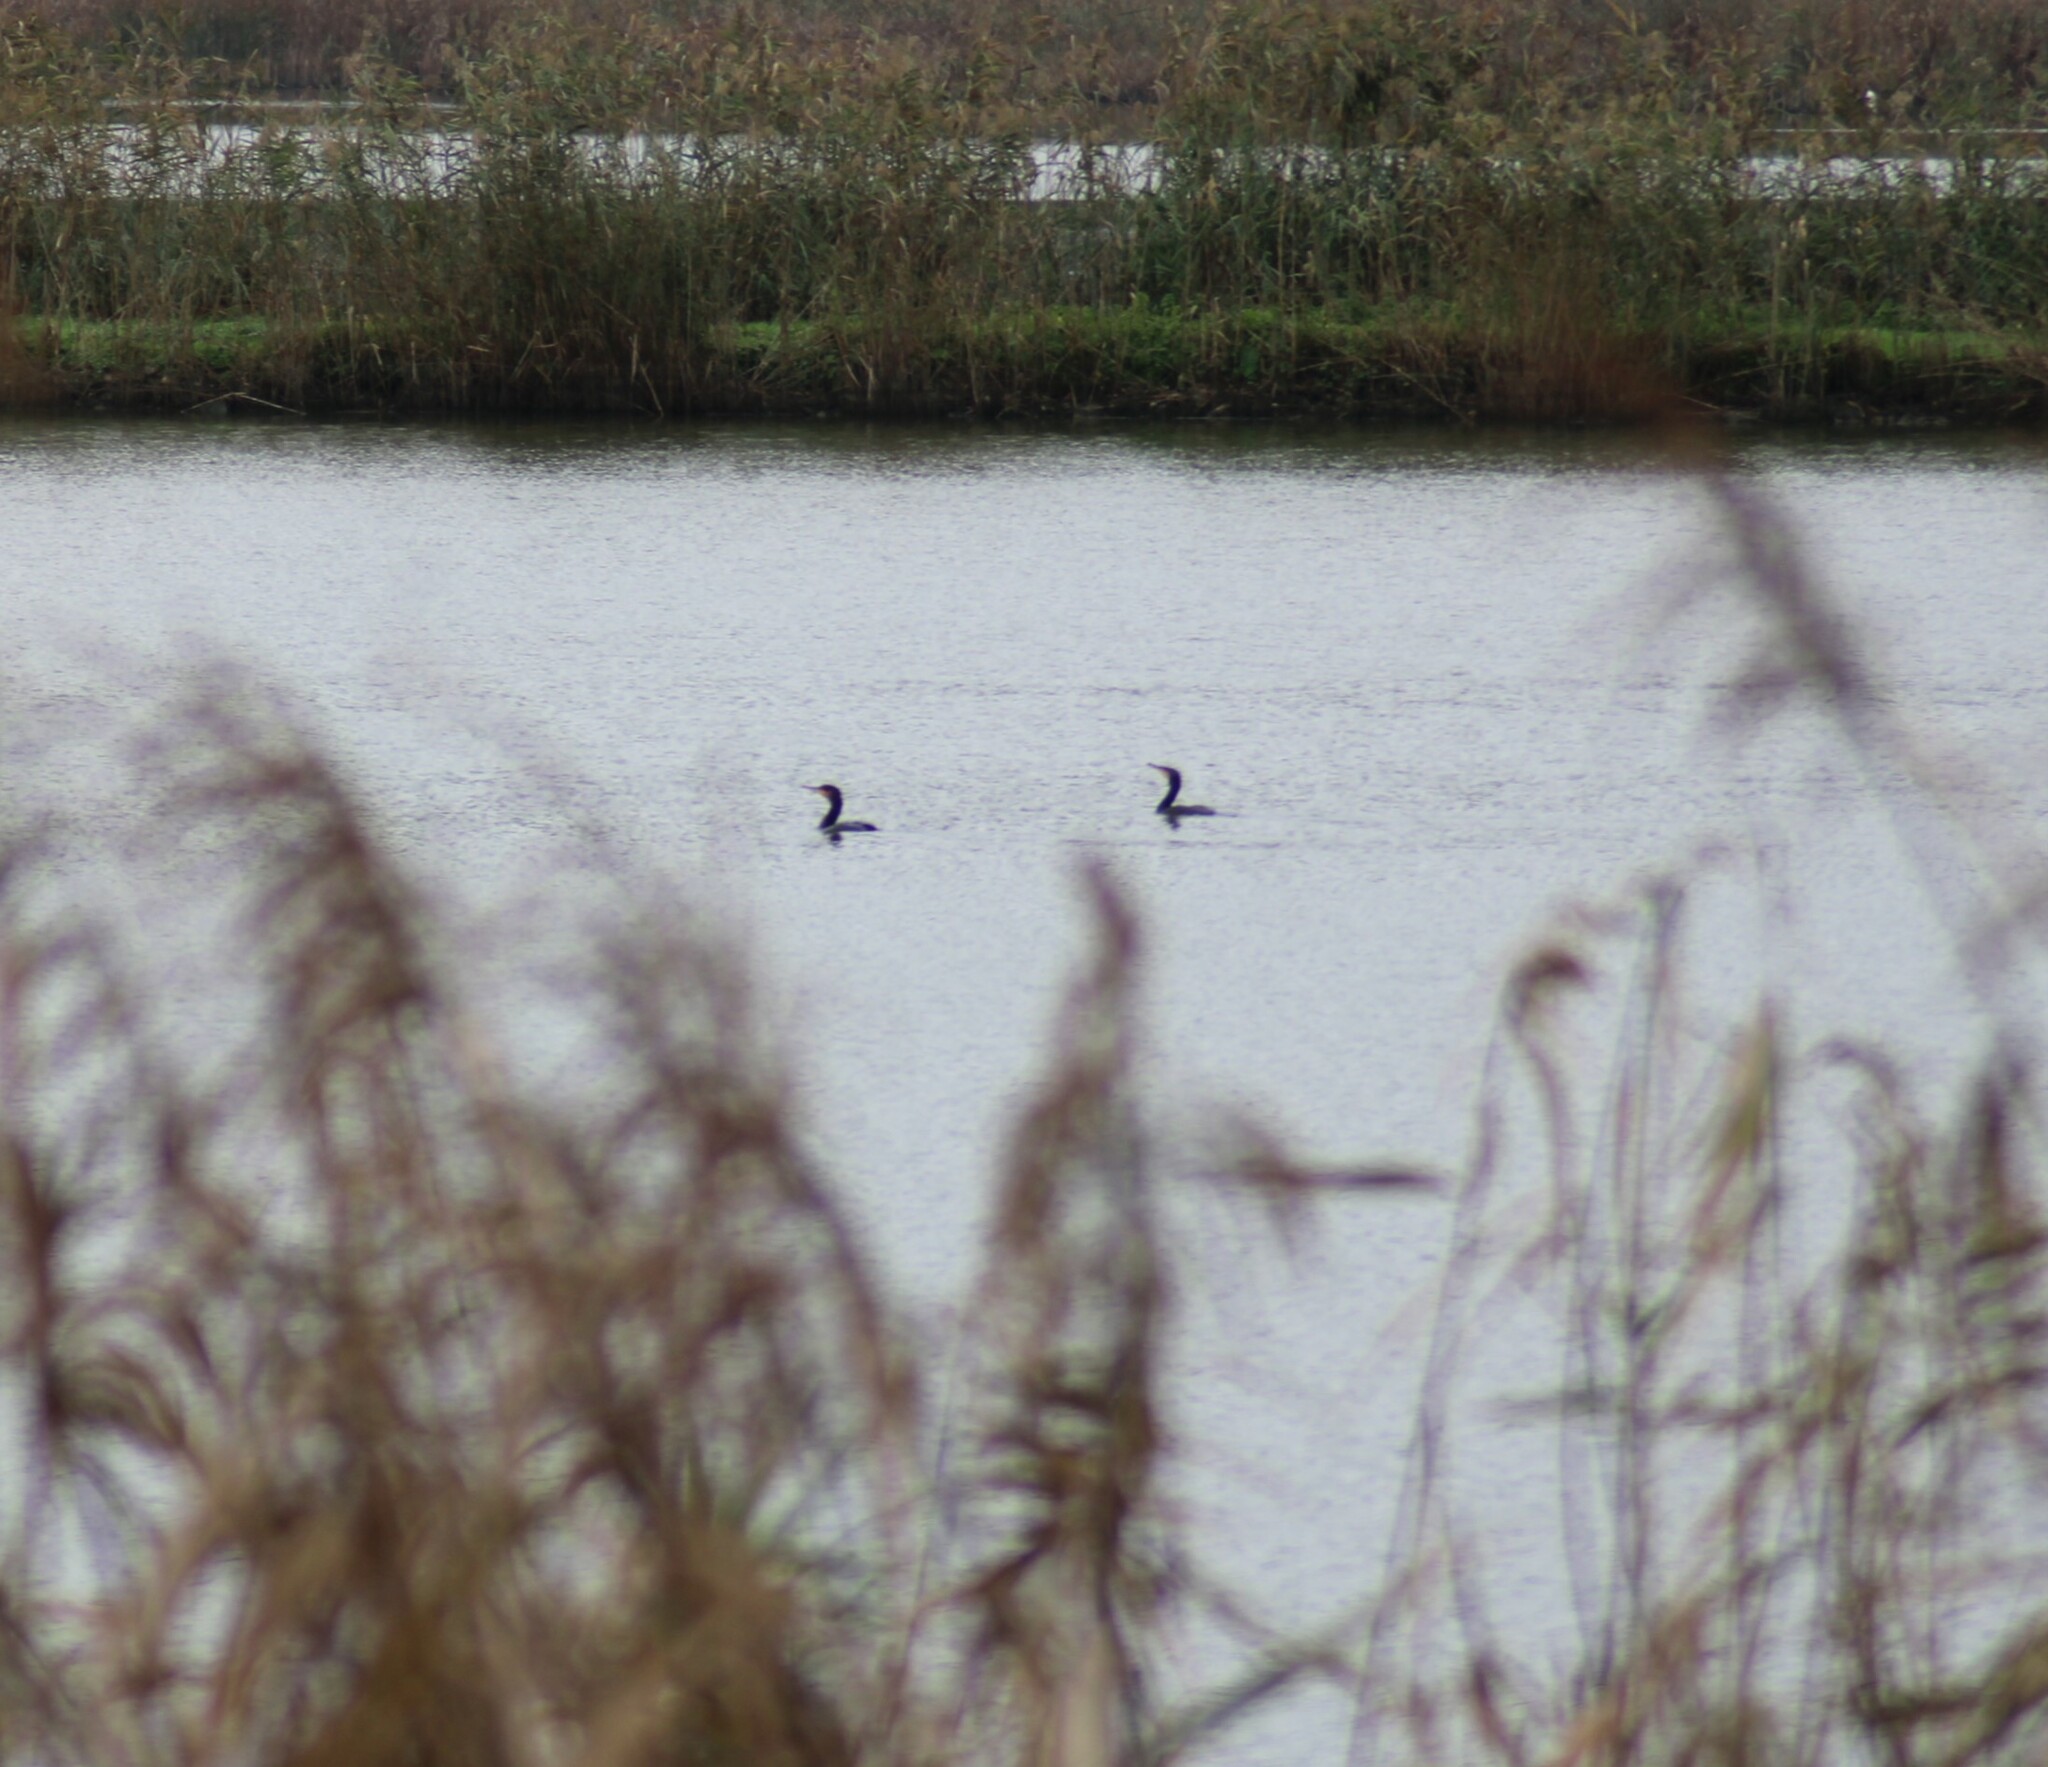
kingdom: Animalia
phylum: Chordata
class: Aves
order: Suliformes
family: Phalacrocoracidae
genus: Phalacrocorax
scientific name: Phalacrocorax carbo
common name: Great cormorant
